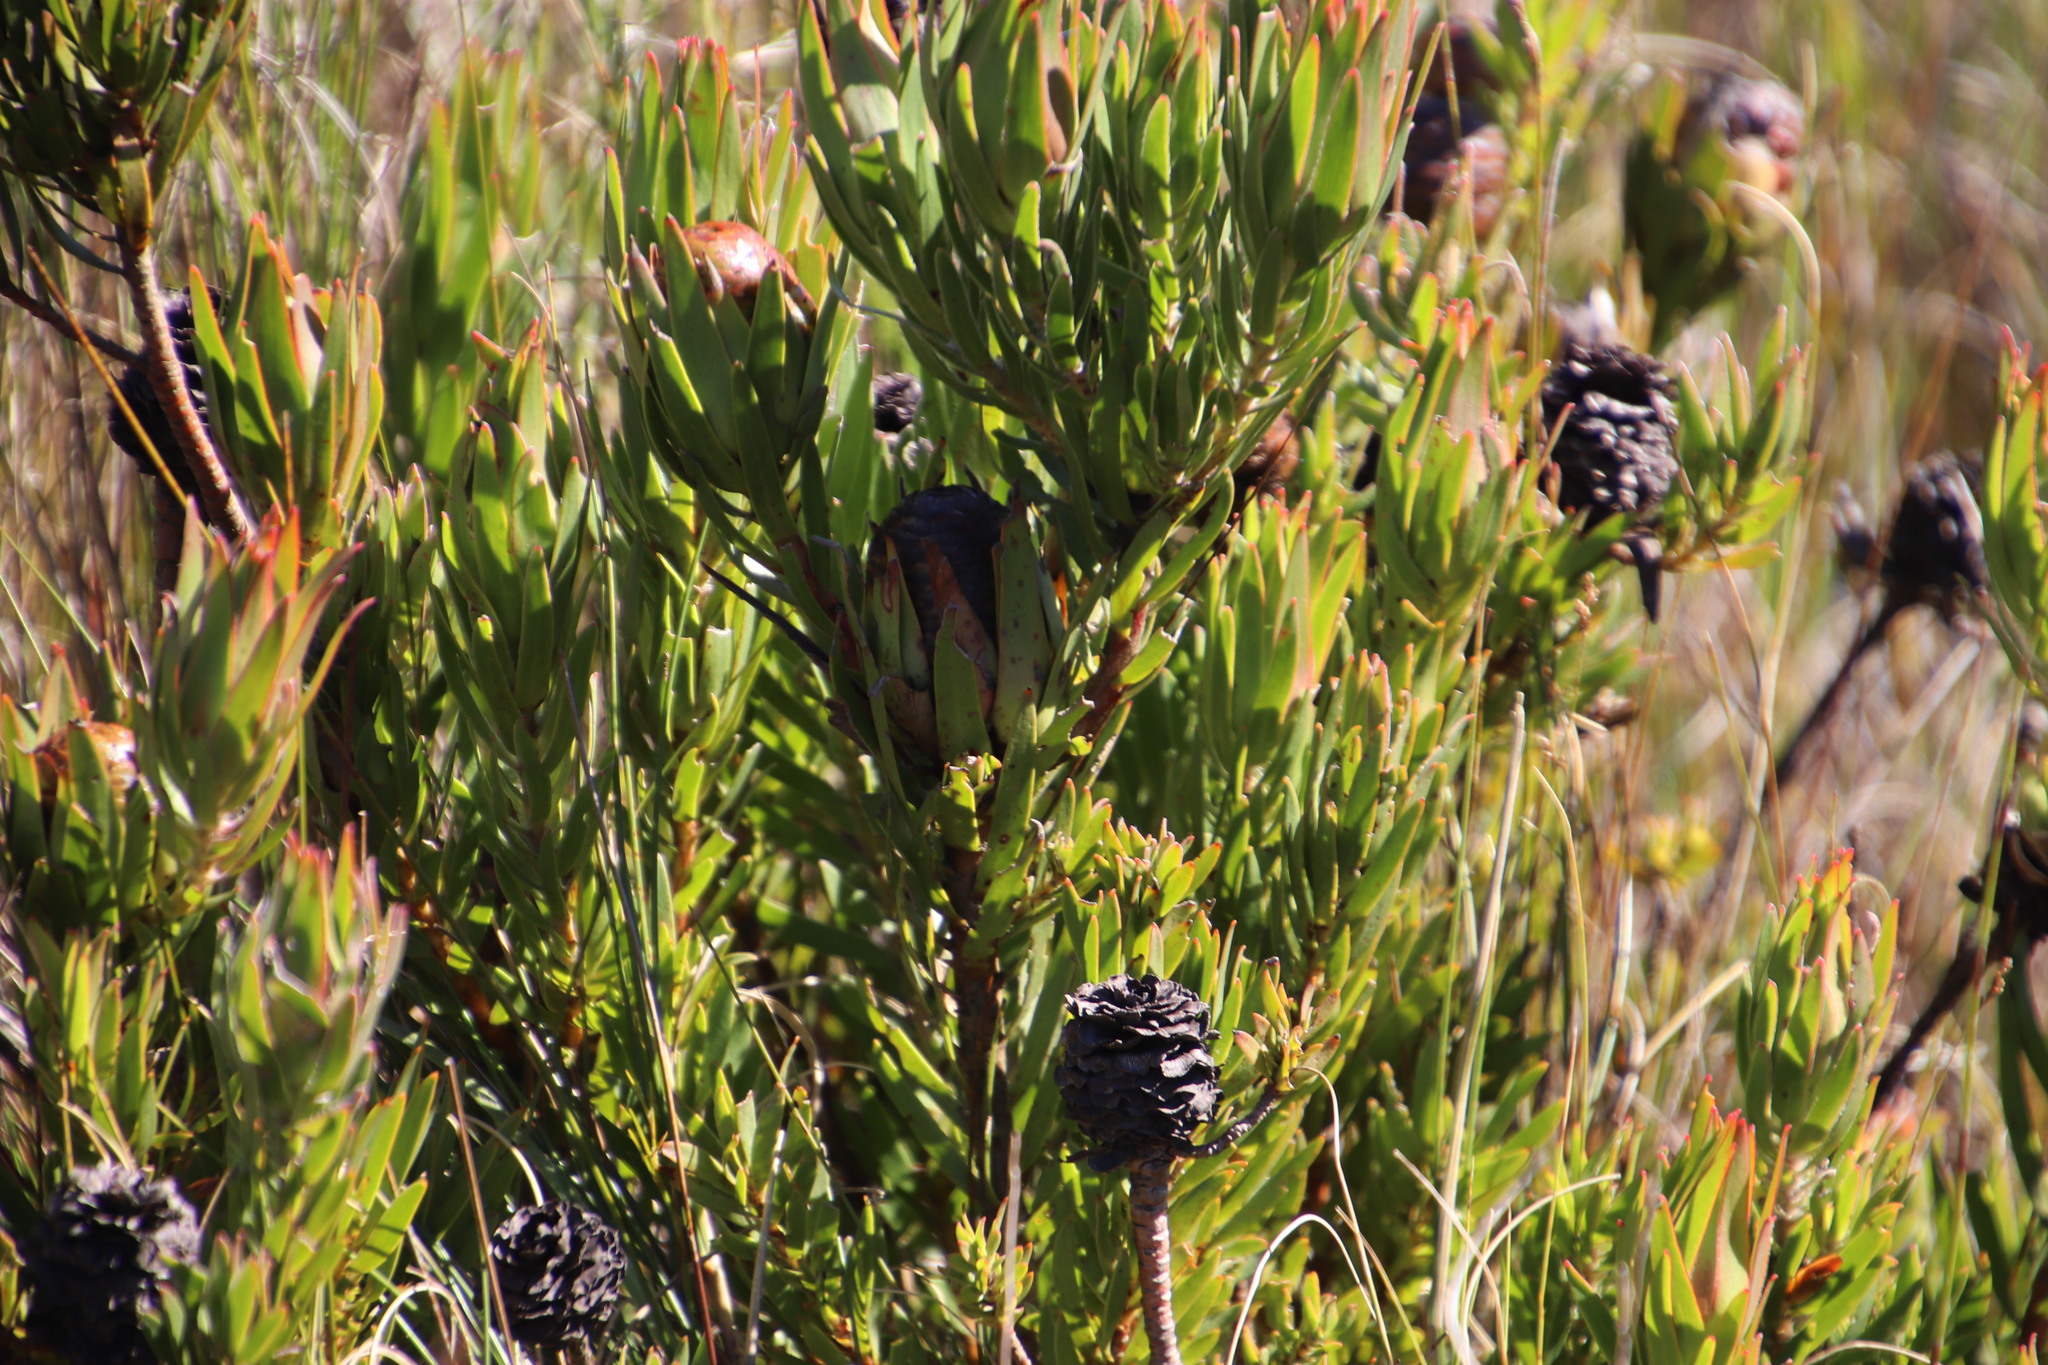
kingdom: Plantae
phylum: Tracheophyta
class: Magnoliopsida
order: Proteales
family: Proteaceae
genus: Leucadendron
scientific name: Leucadendron spissifolium
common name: Spear-leaf conebush
